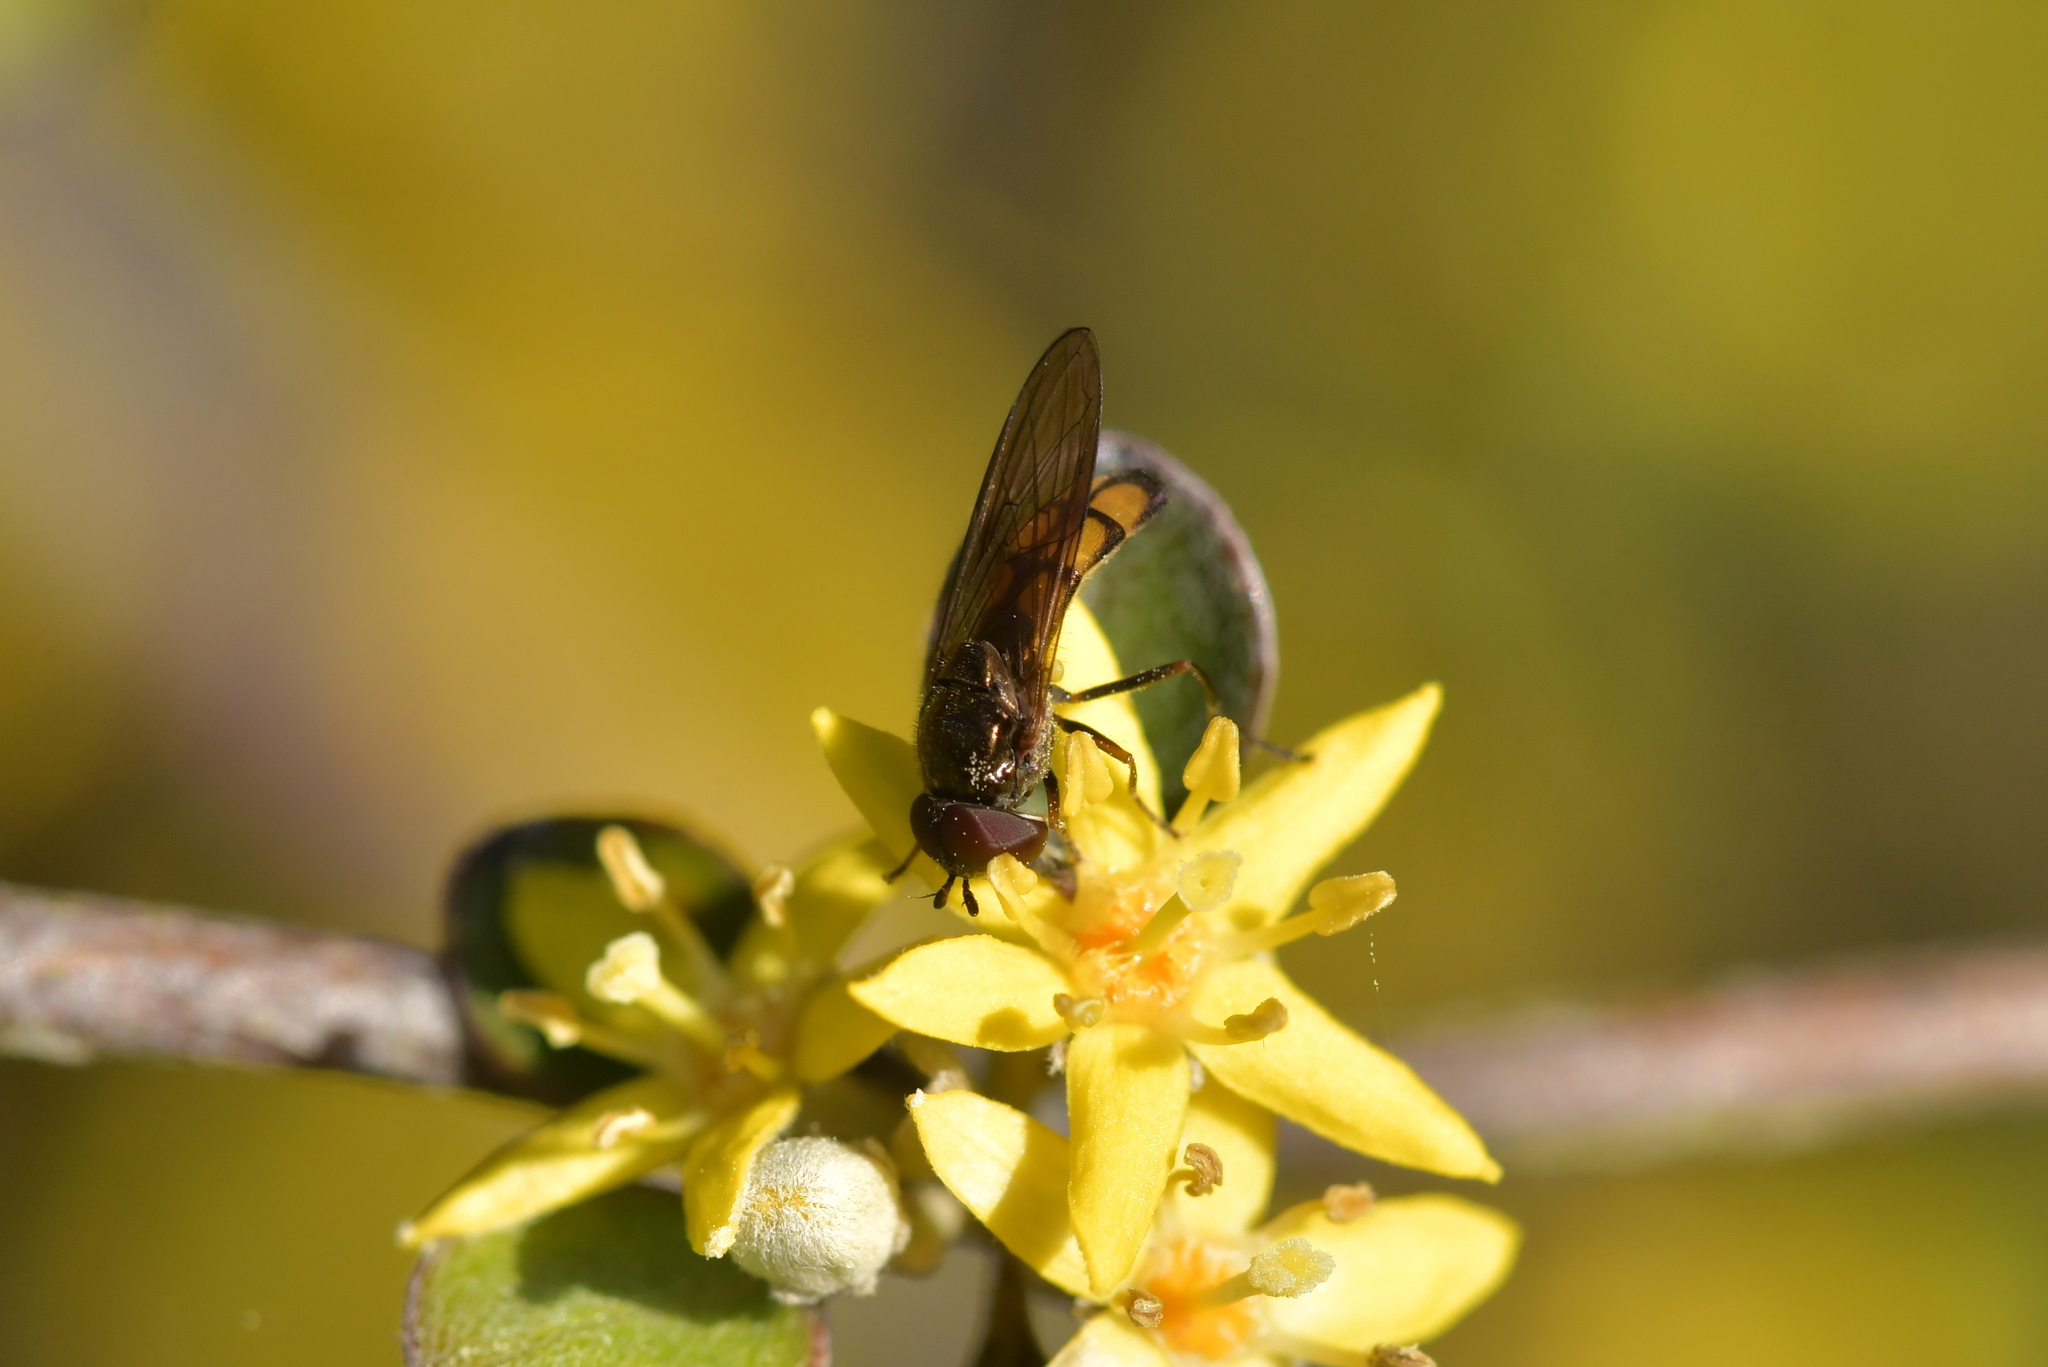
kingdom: Animalia
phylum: Arthropoda
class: Insecta
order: Diptera
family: Syrphidae
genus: Melanostoma
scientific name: Melanostoma fasciatum
